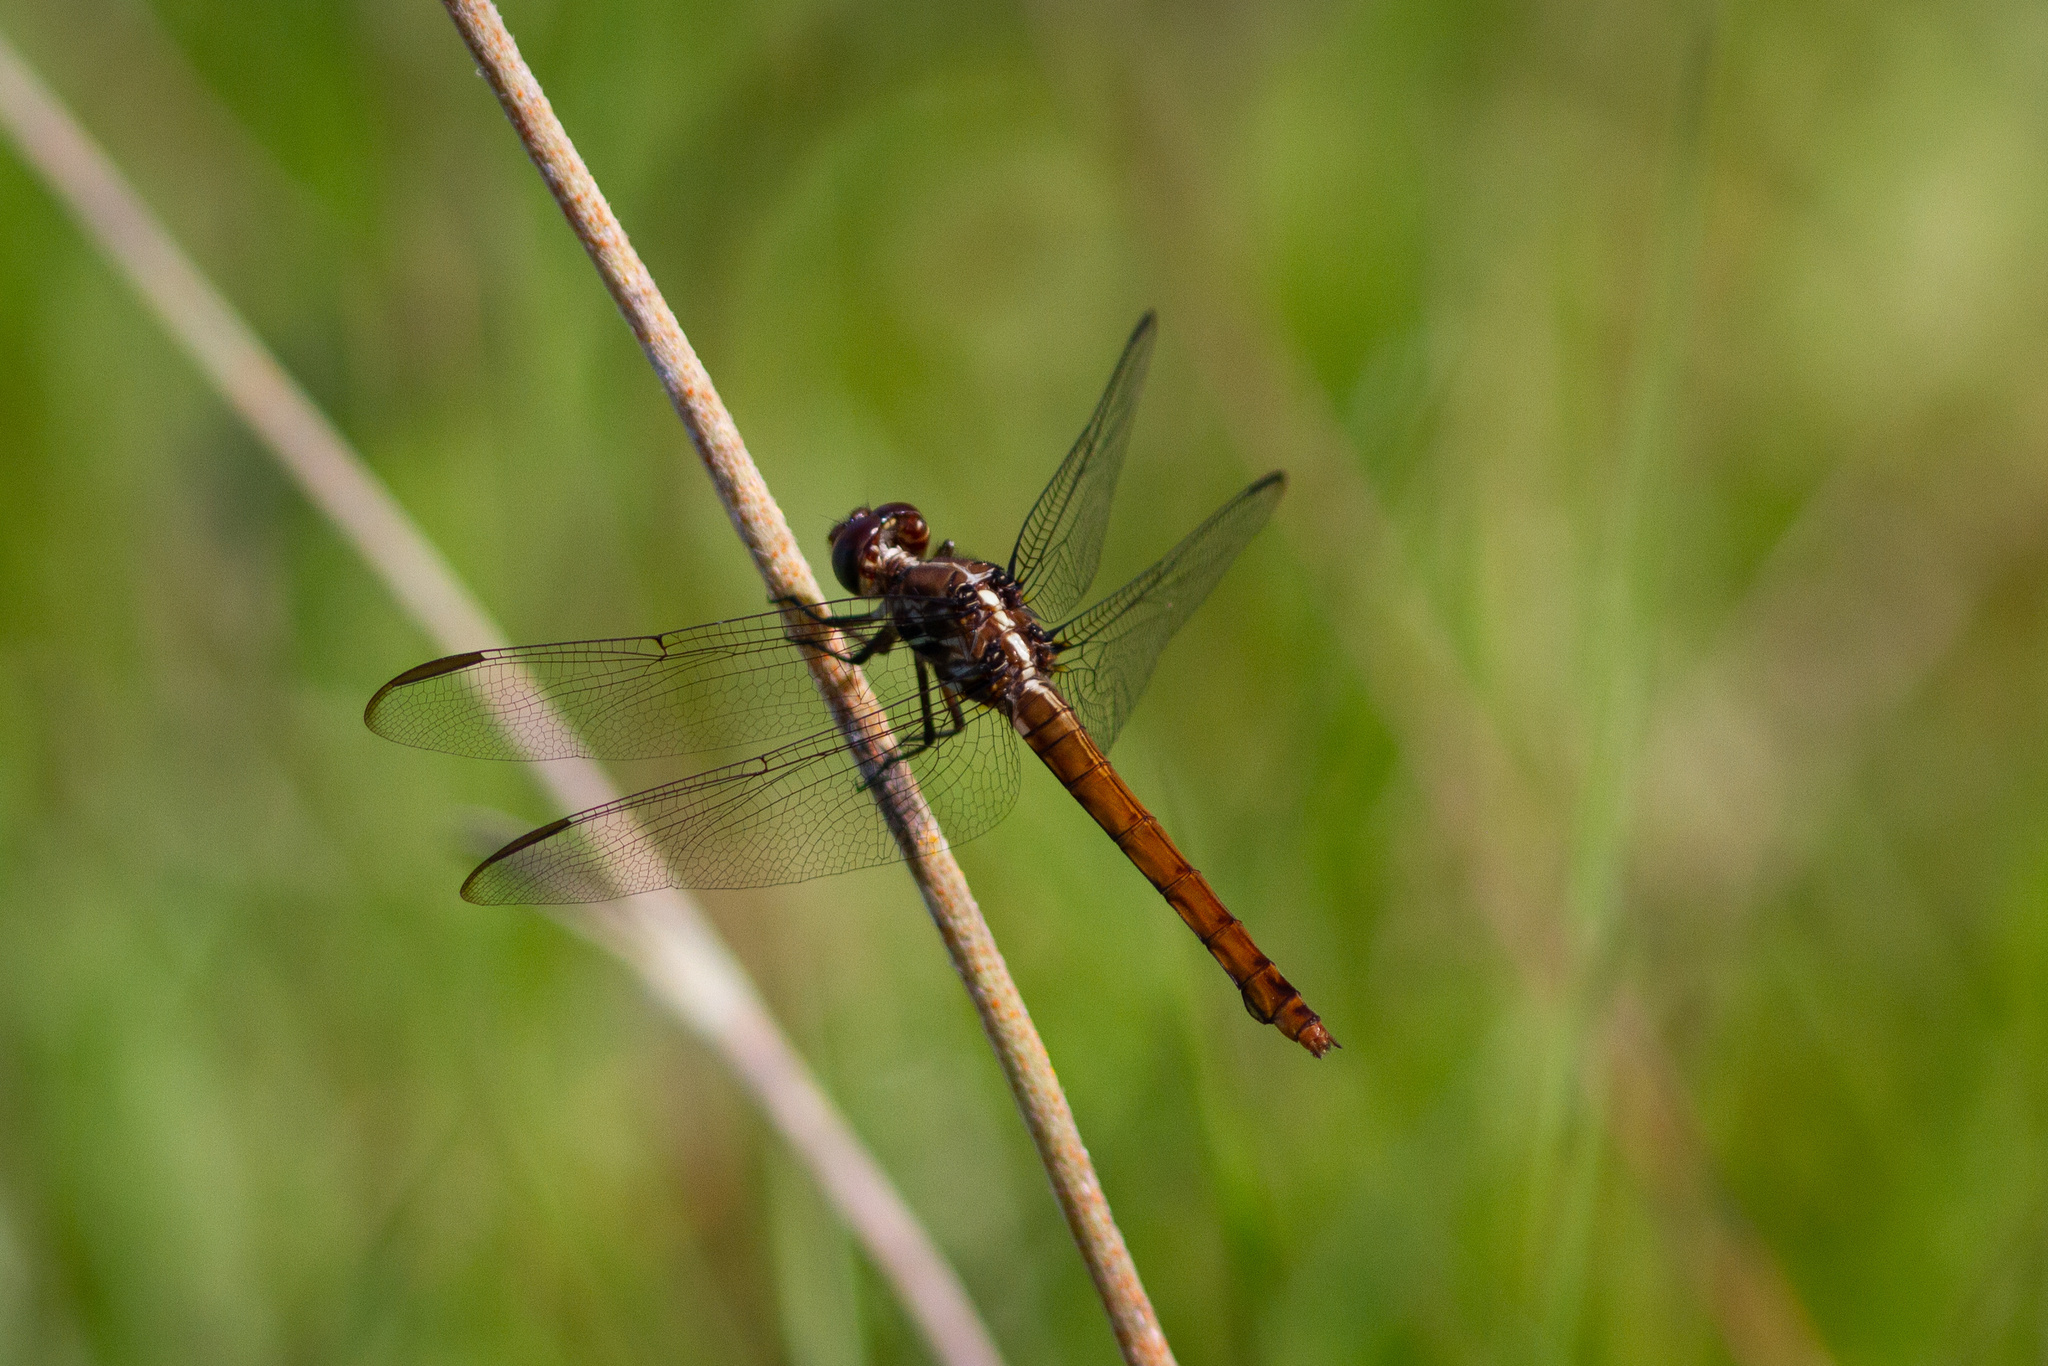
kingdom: Animalia
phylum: Arthropoda
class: Insecta
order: Odonata
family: Libellulidae
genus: Orthemis
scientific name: Orthemis ferruginea
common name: Roseate skimmer
